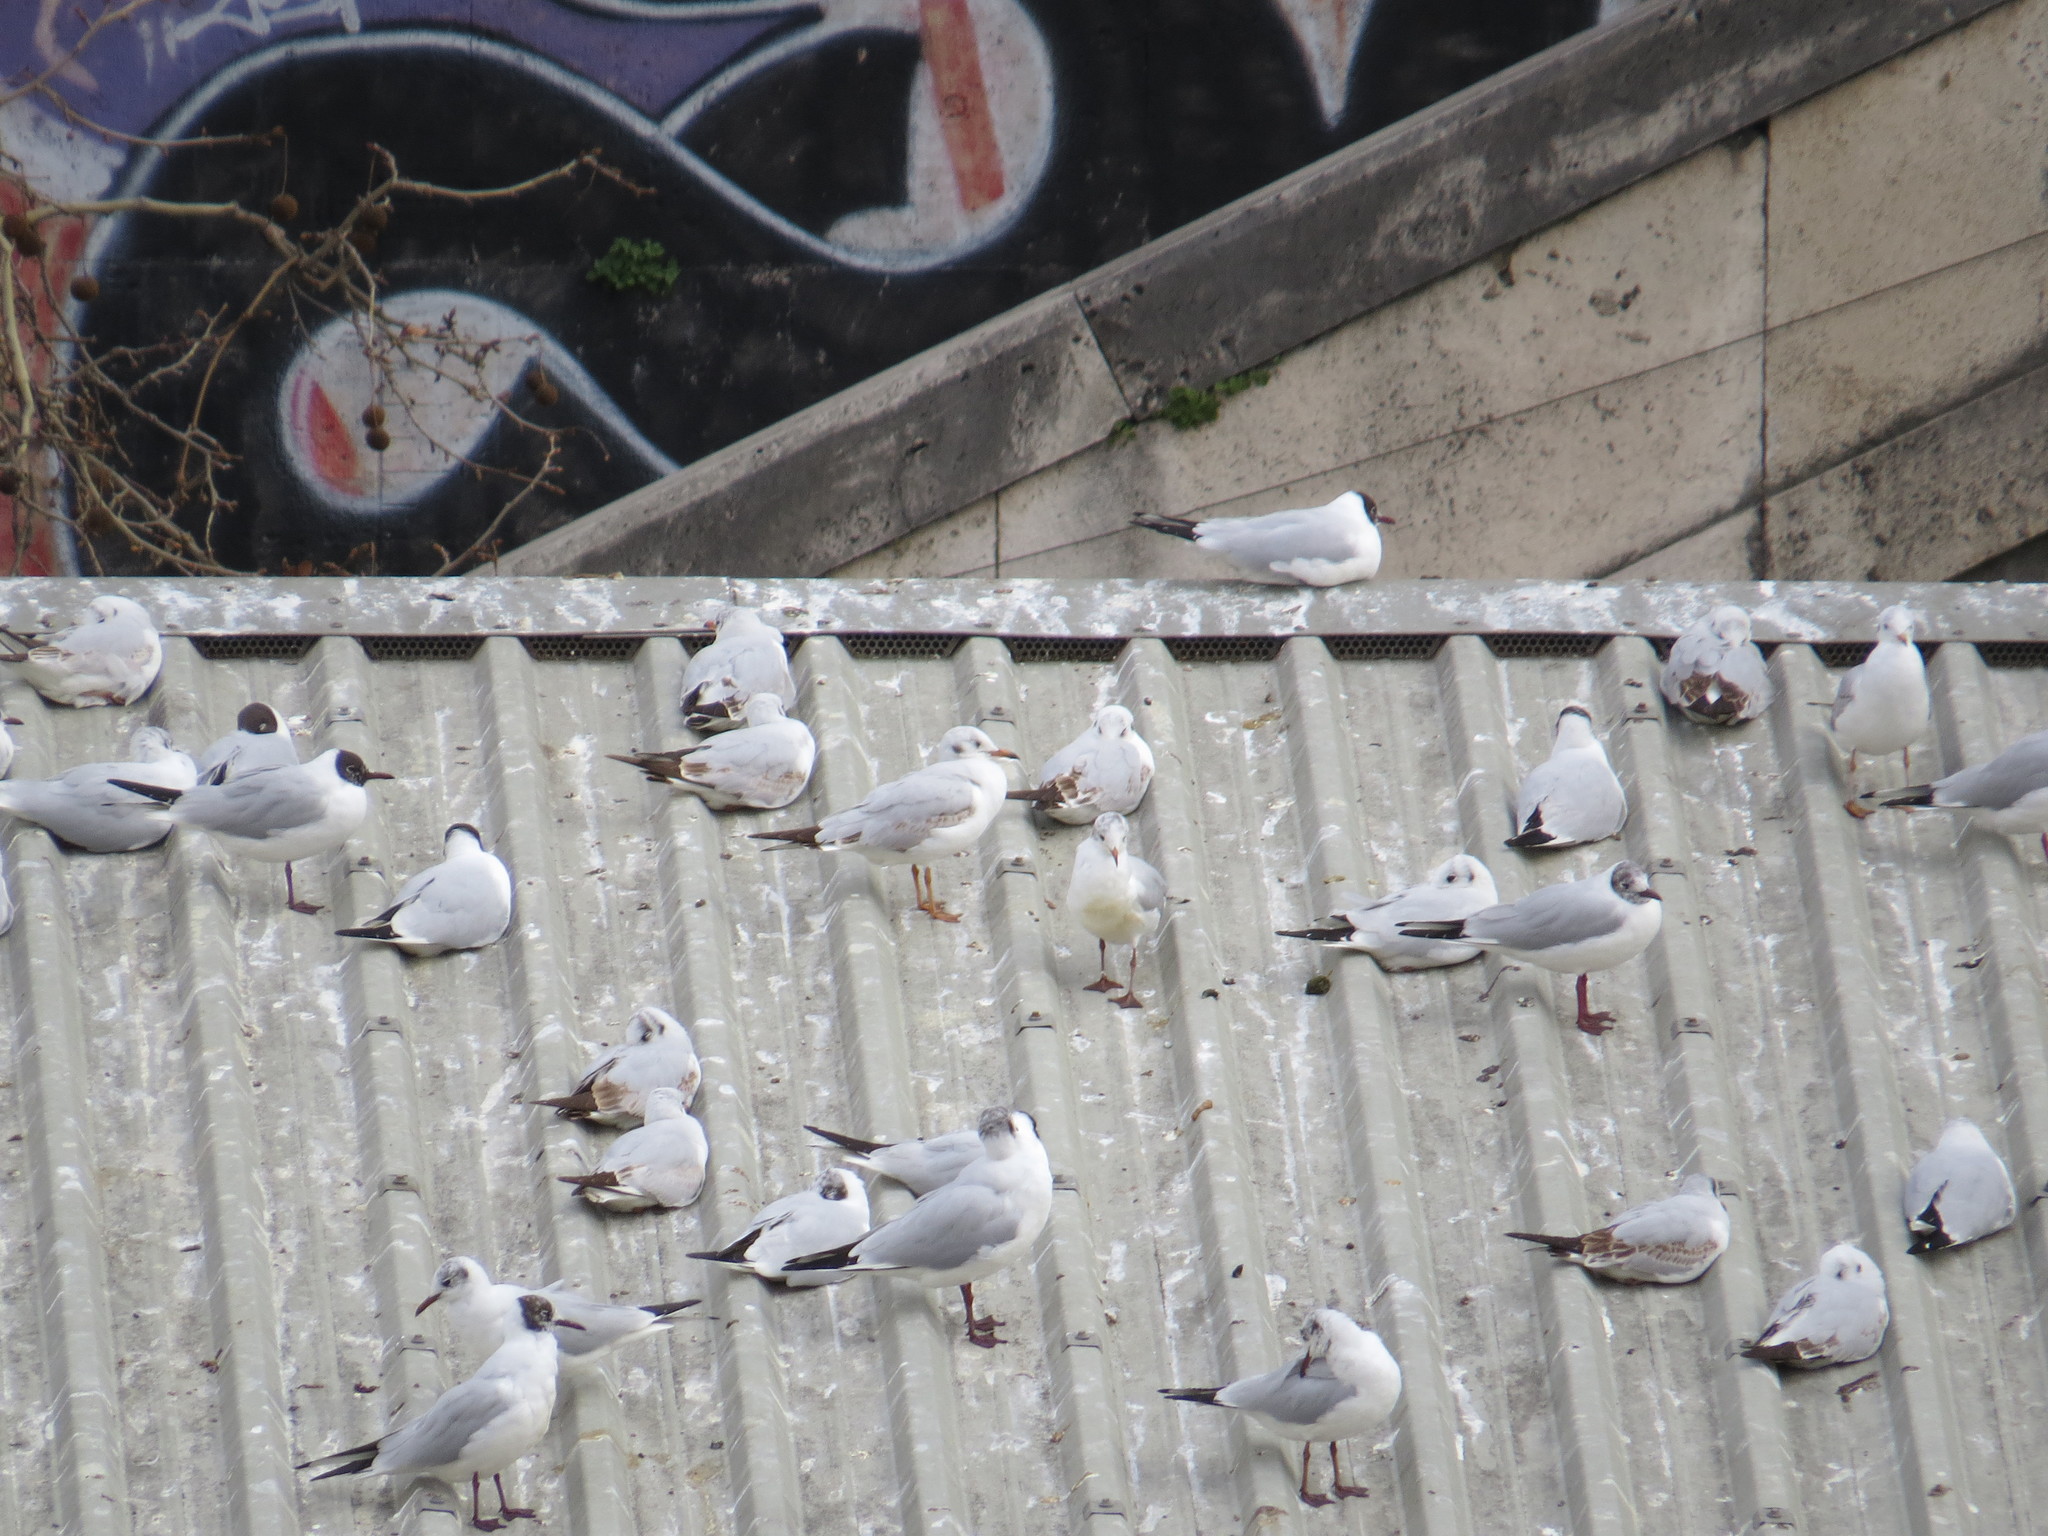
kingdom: Animalia
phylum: Chordata
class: Aves
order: Charadriiformes
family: Laridae
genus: Chroicocephalus
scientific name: Chroicocephalus ridibundus
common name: Black-headed gull
